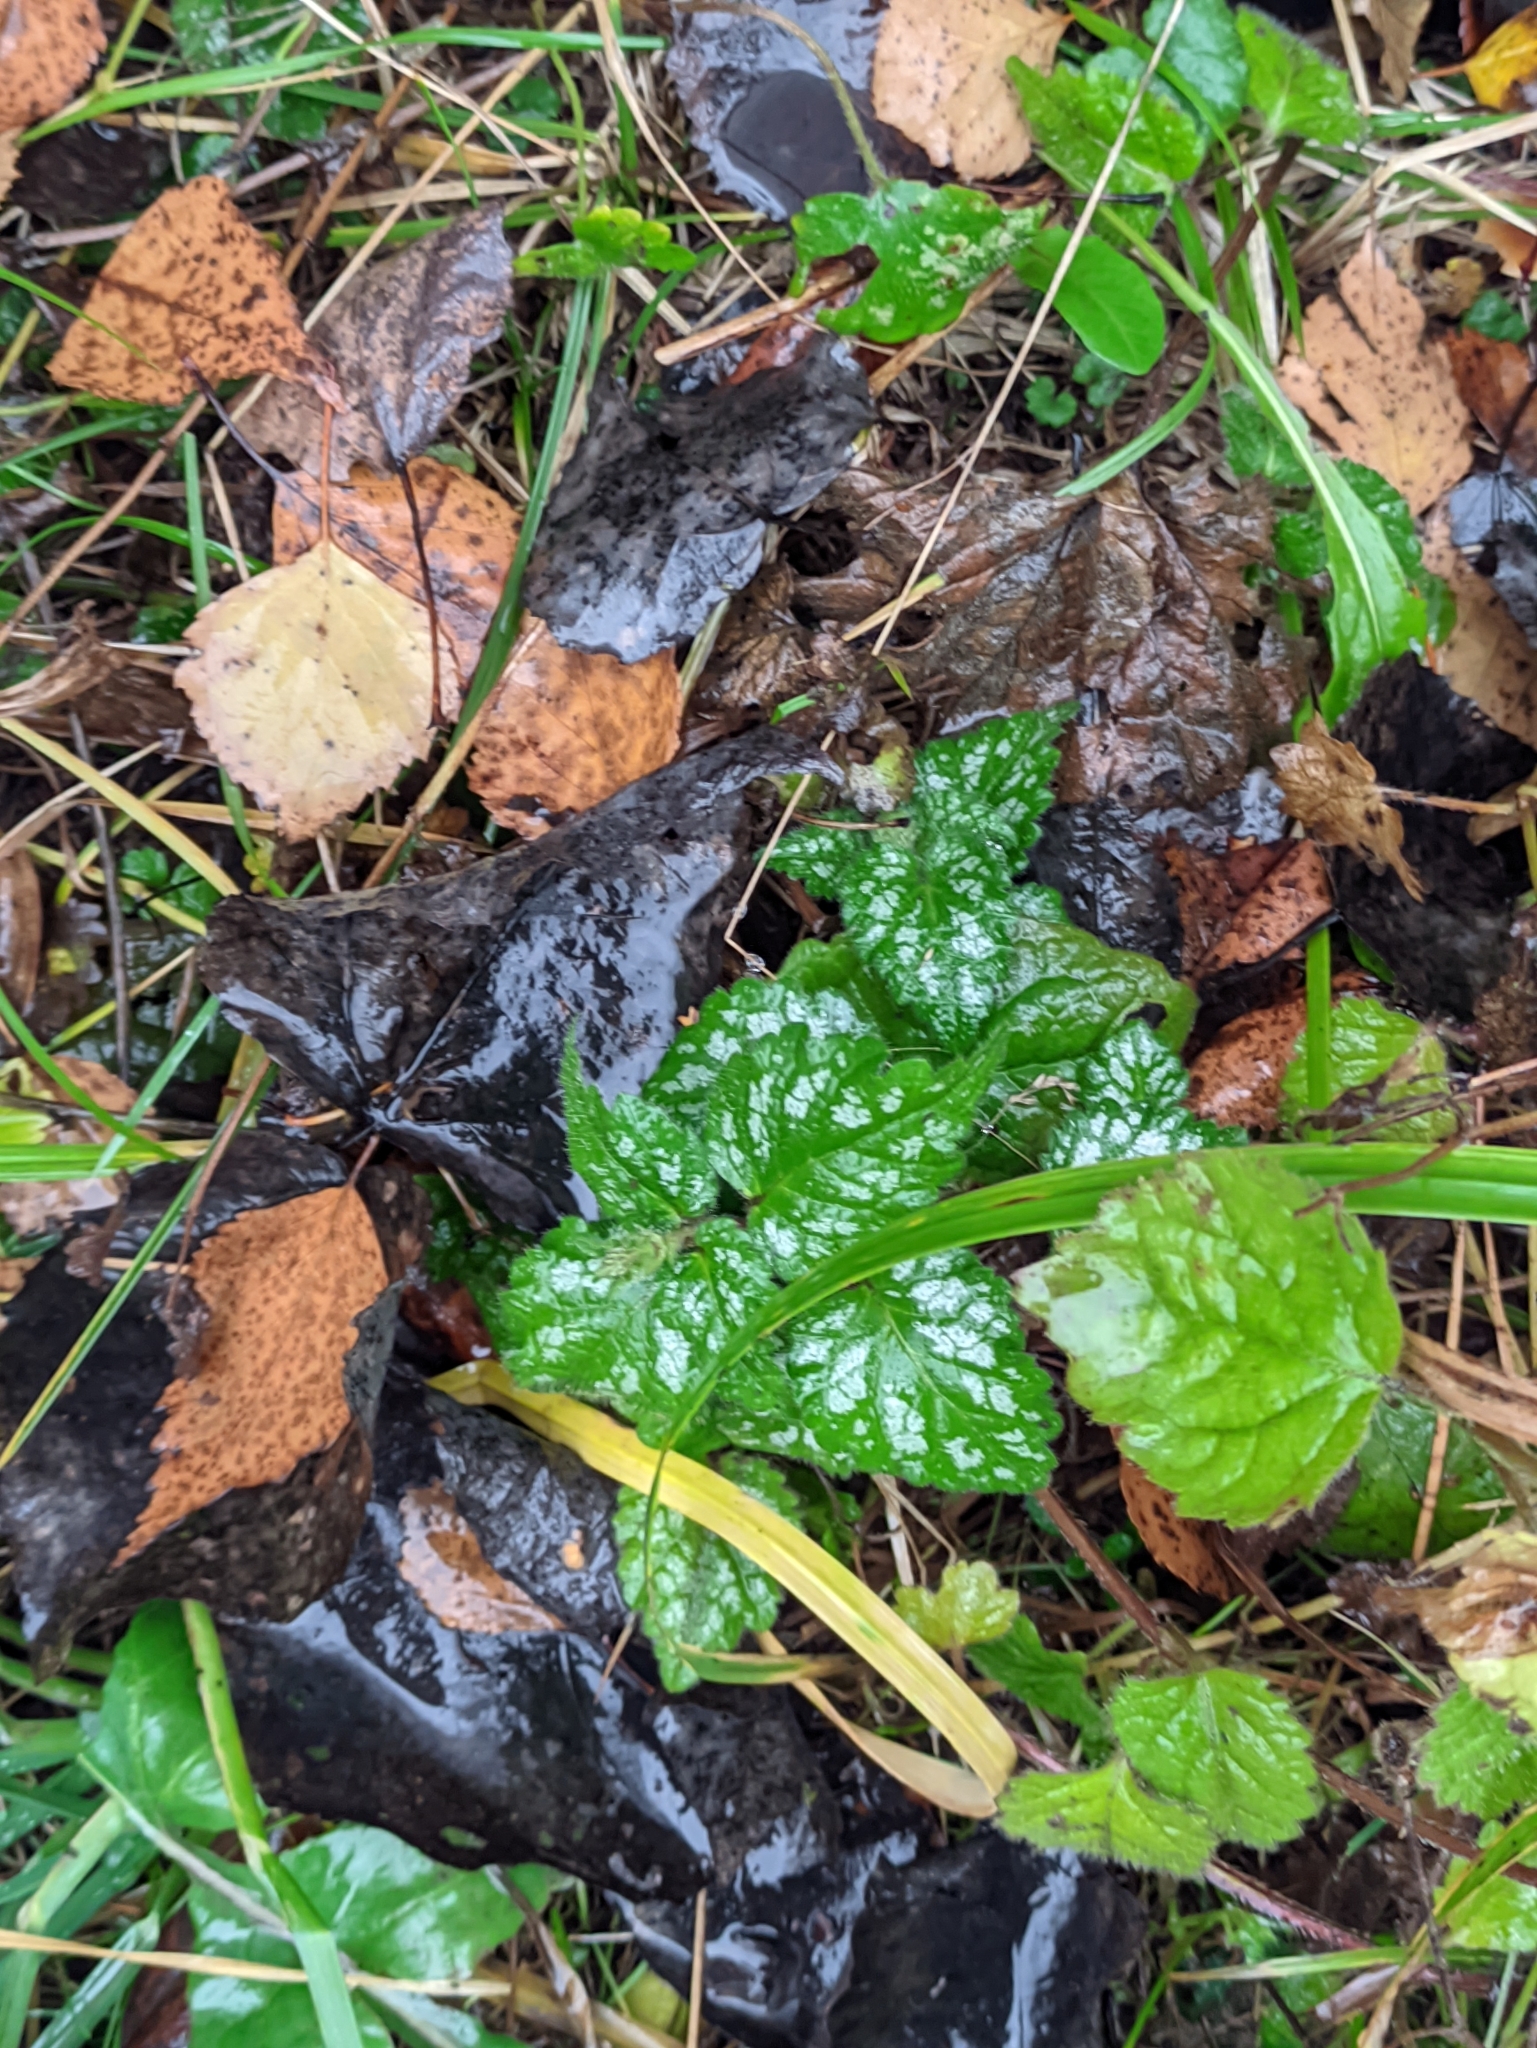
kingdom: Plantae
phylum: Tracheophyta
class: Magnoliopsida
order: Lamiales
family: Lamiaceae
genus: Lamium
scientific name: Lamium galeobdolon
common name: Yellow archangel
